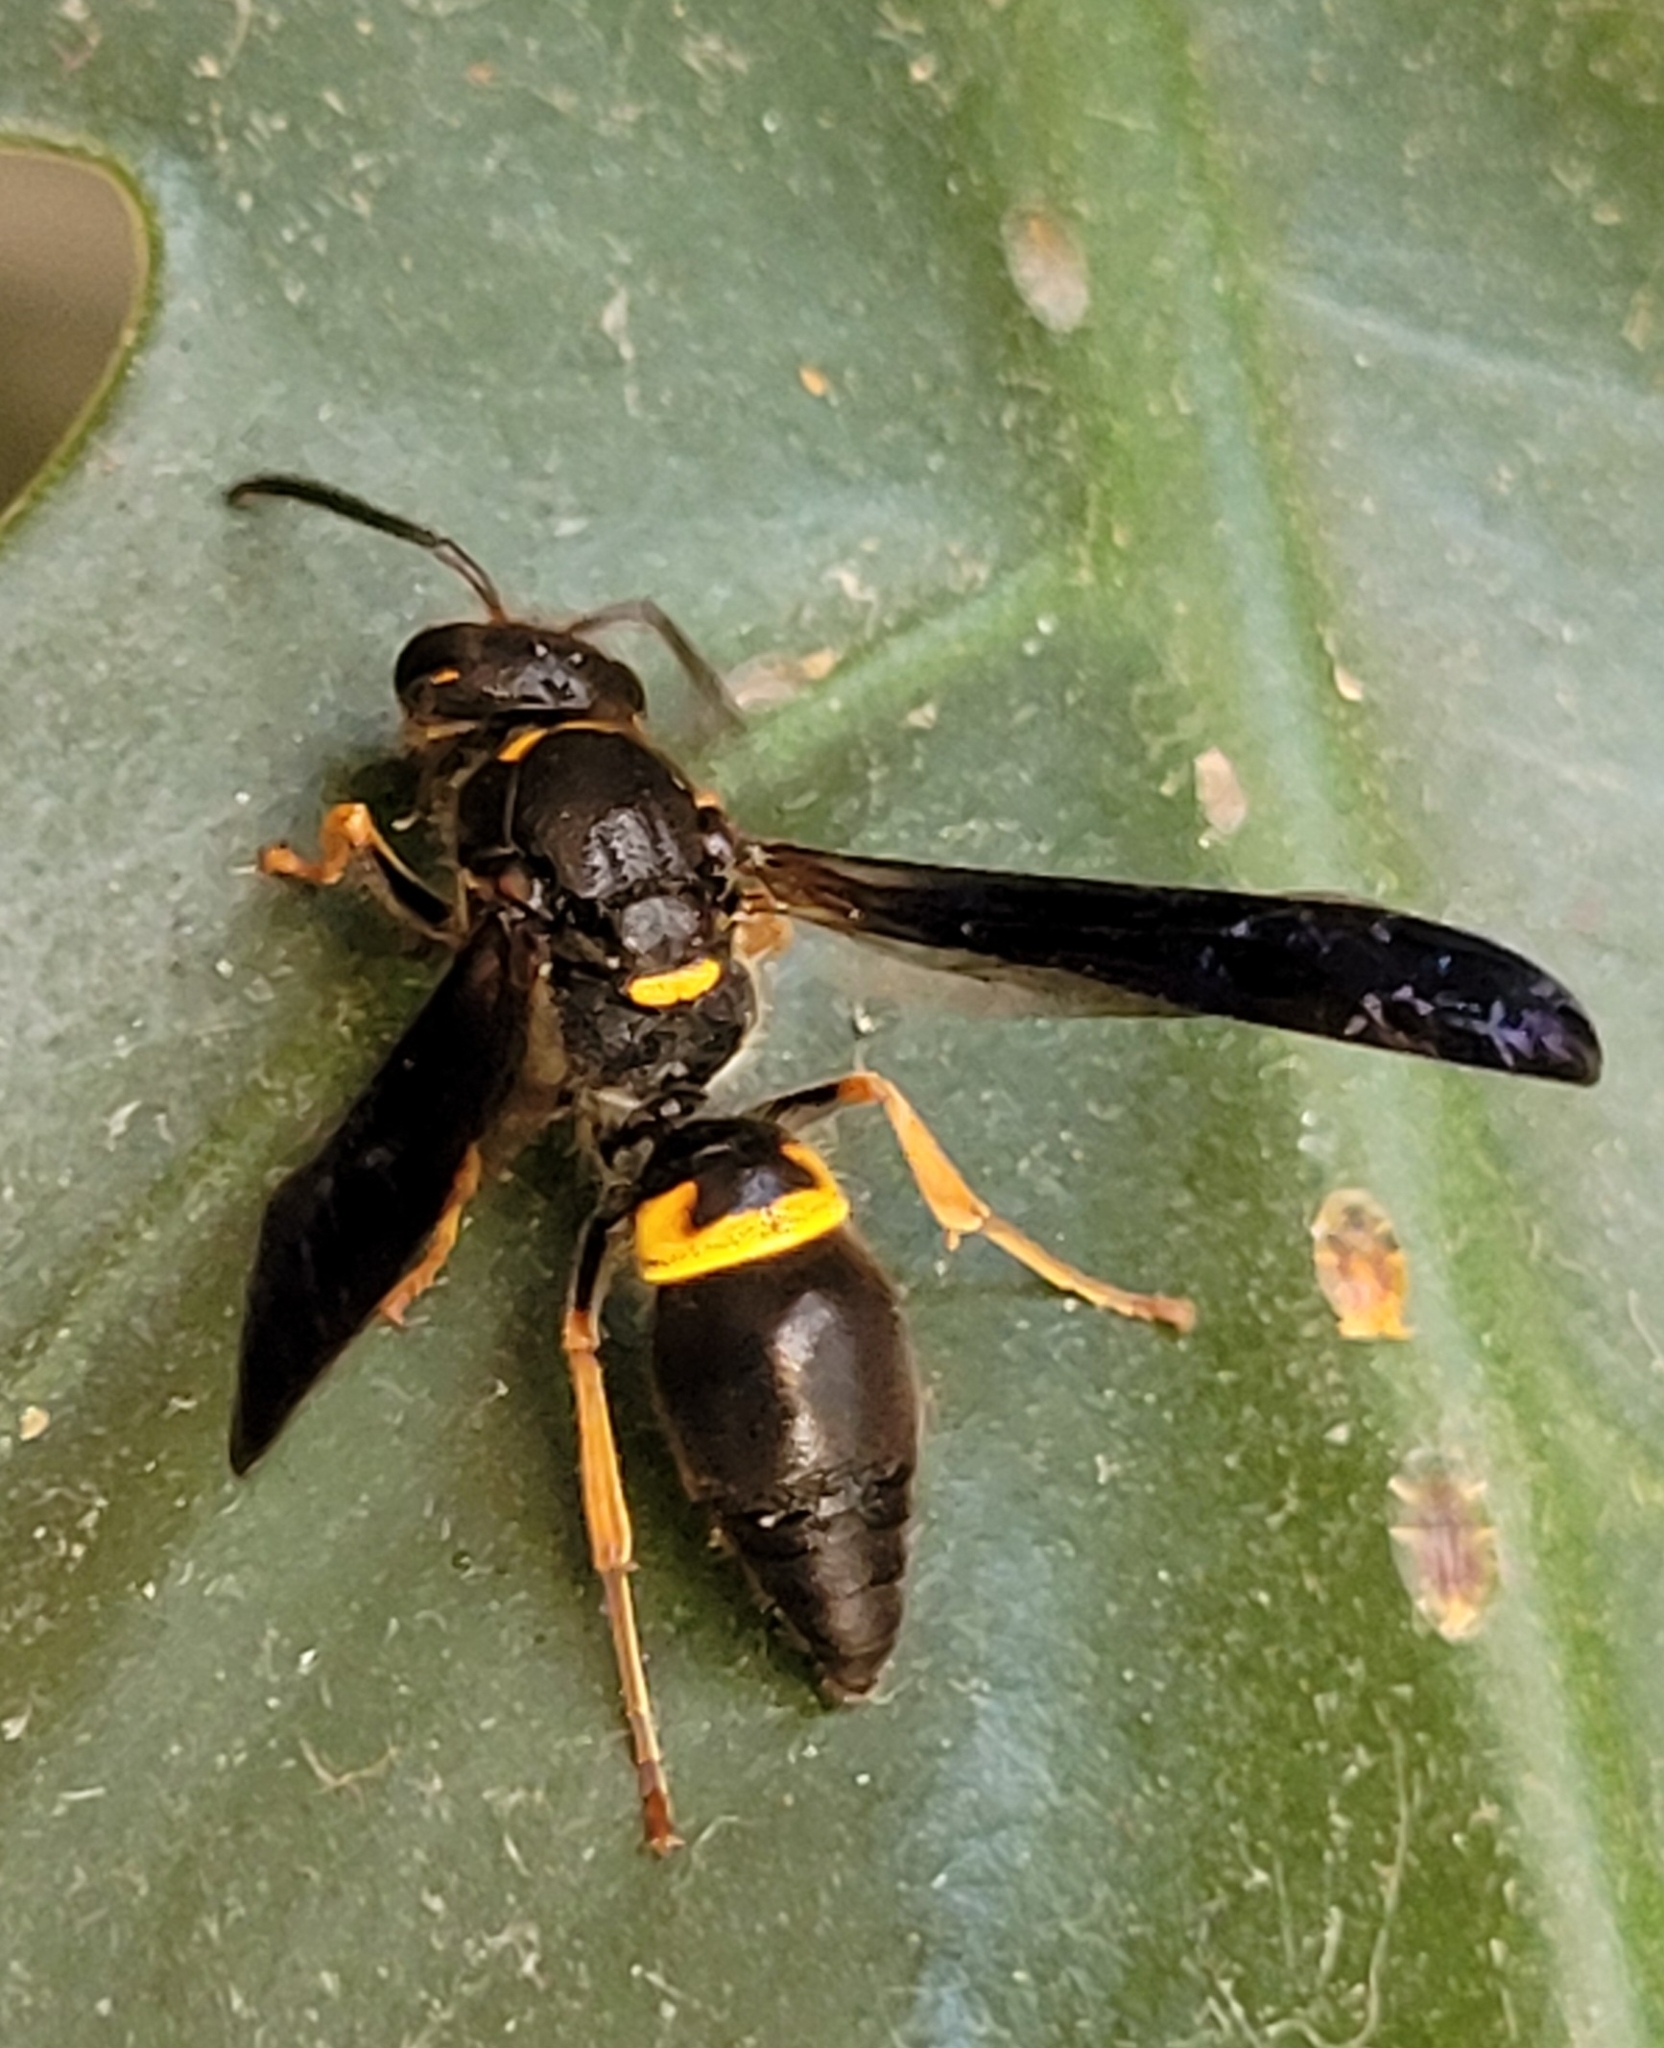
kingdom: Animalia
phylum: Arthropoda
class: Insecta
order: Hymenoptera
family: Vespidae
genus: Ancistrocerus
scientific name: Ancistrocerus unifasciatus
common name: One-banded mason wasp
